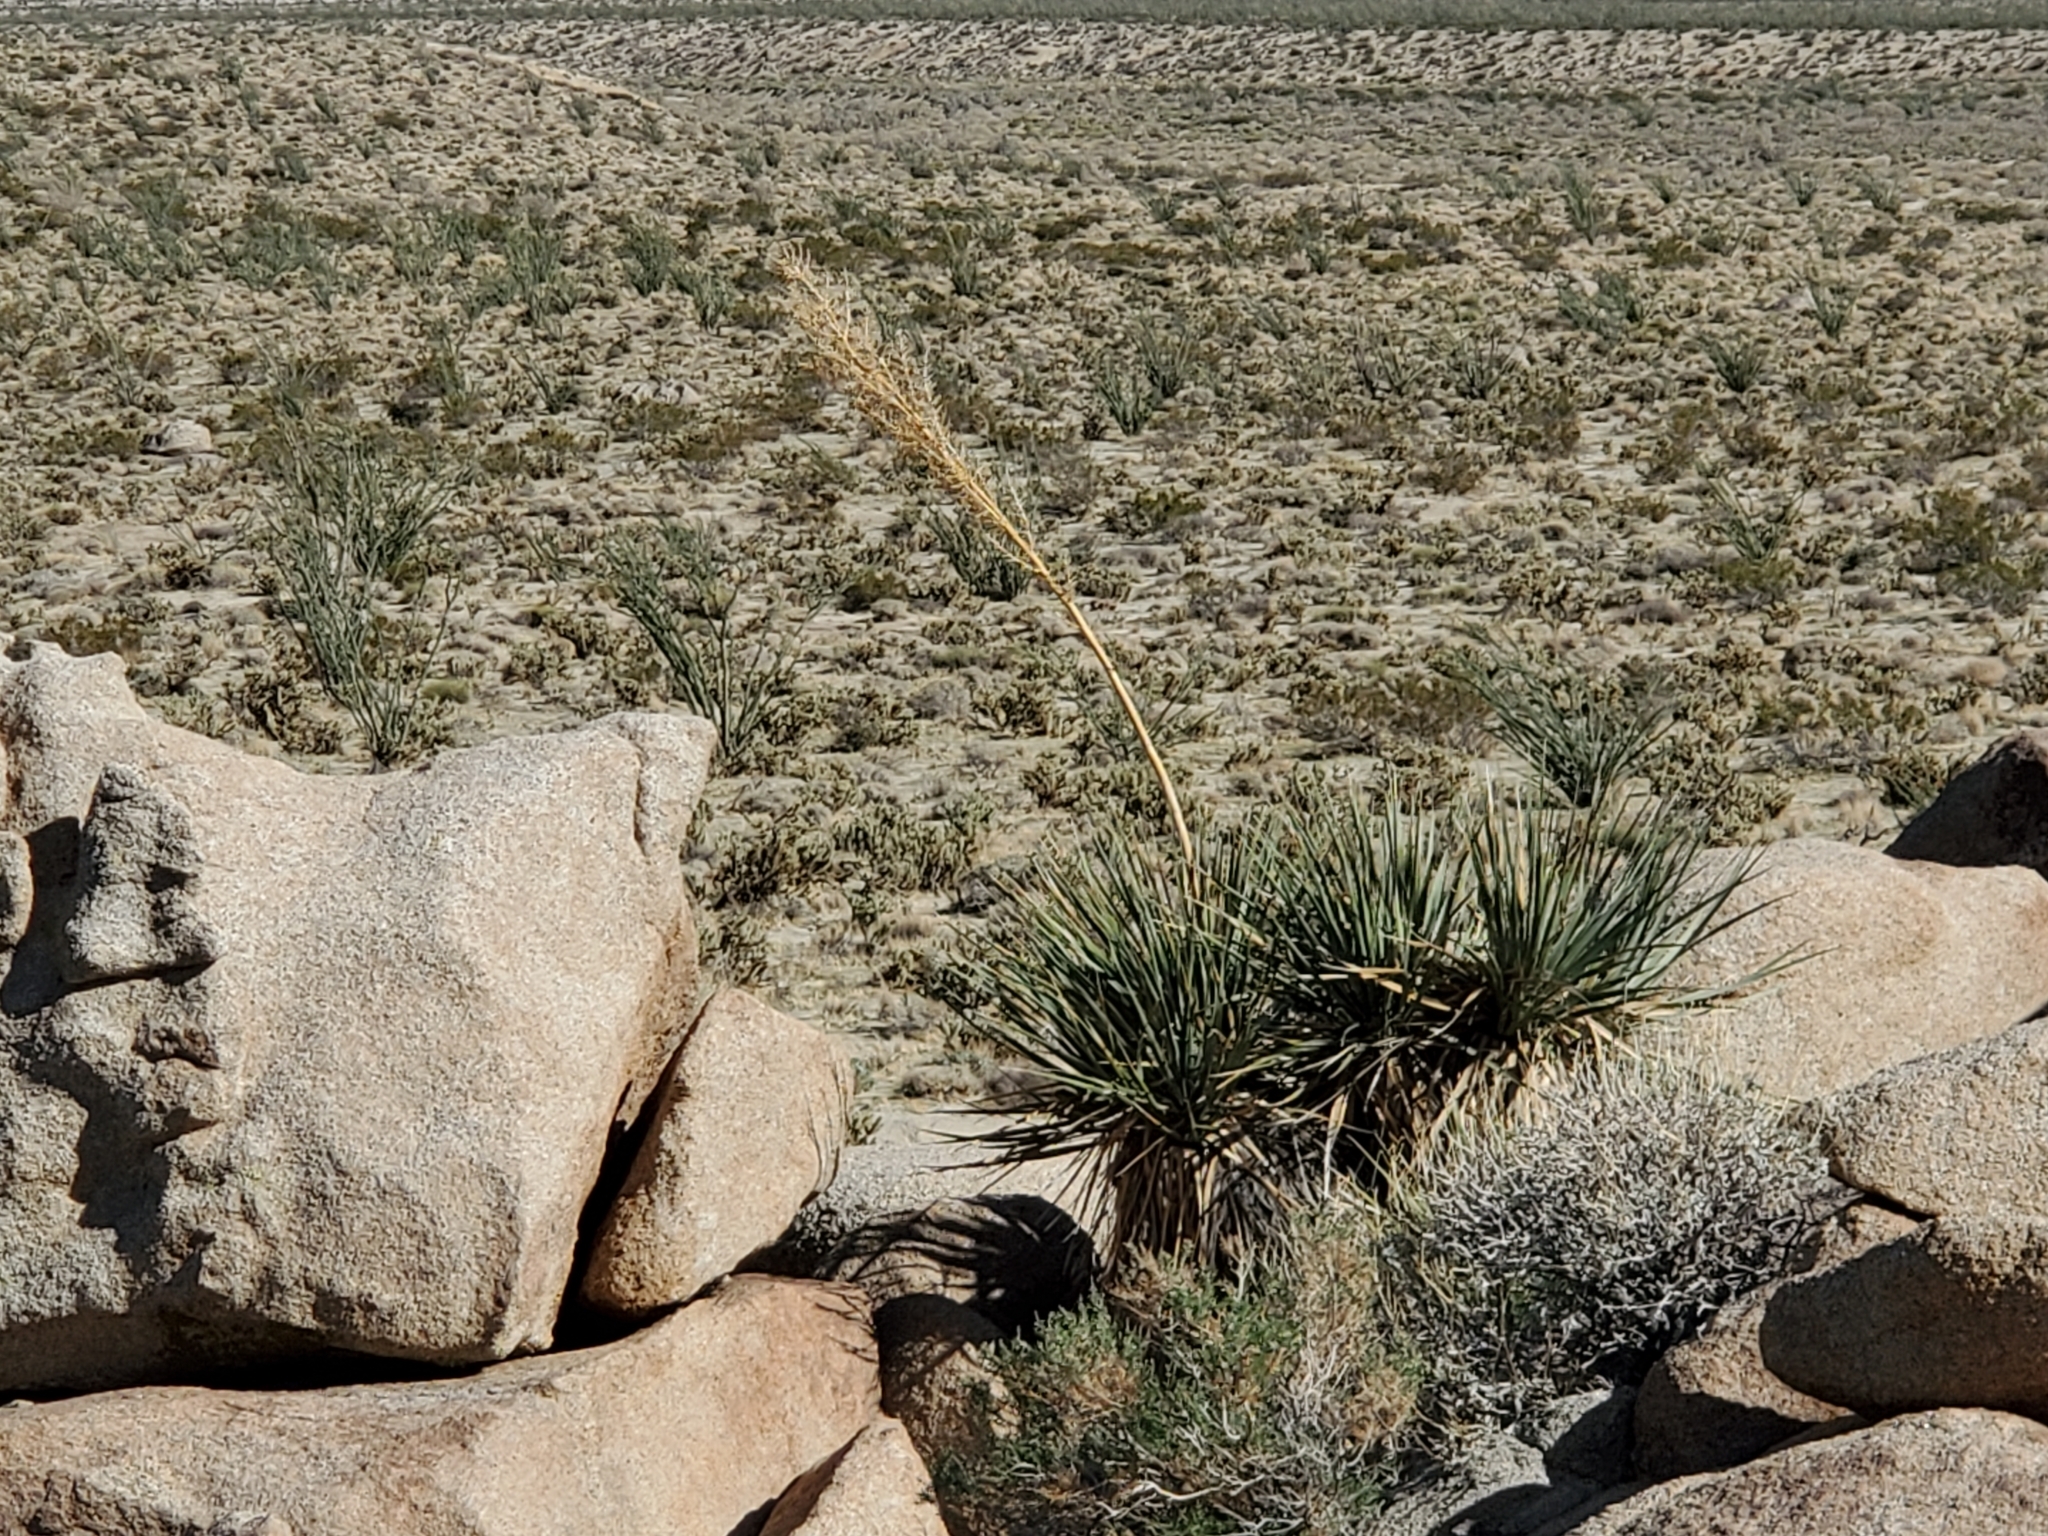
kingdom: Plantae
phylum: Tracheophyta
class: Liliopsida
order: Asparagales
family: Asparagaceae
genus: Nolina
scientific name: Nolina bigelovii
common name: Bigelow bear-grass
